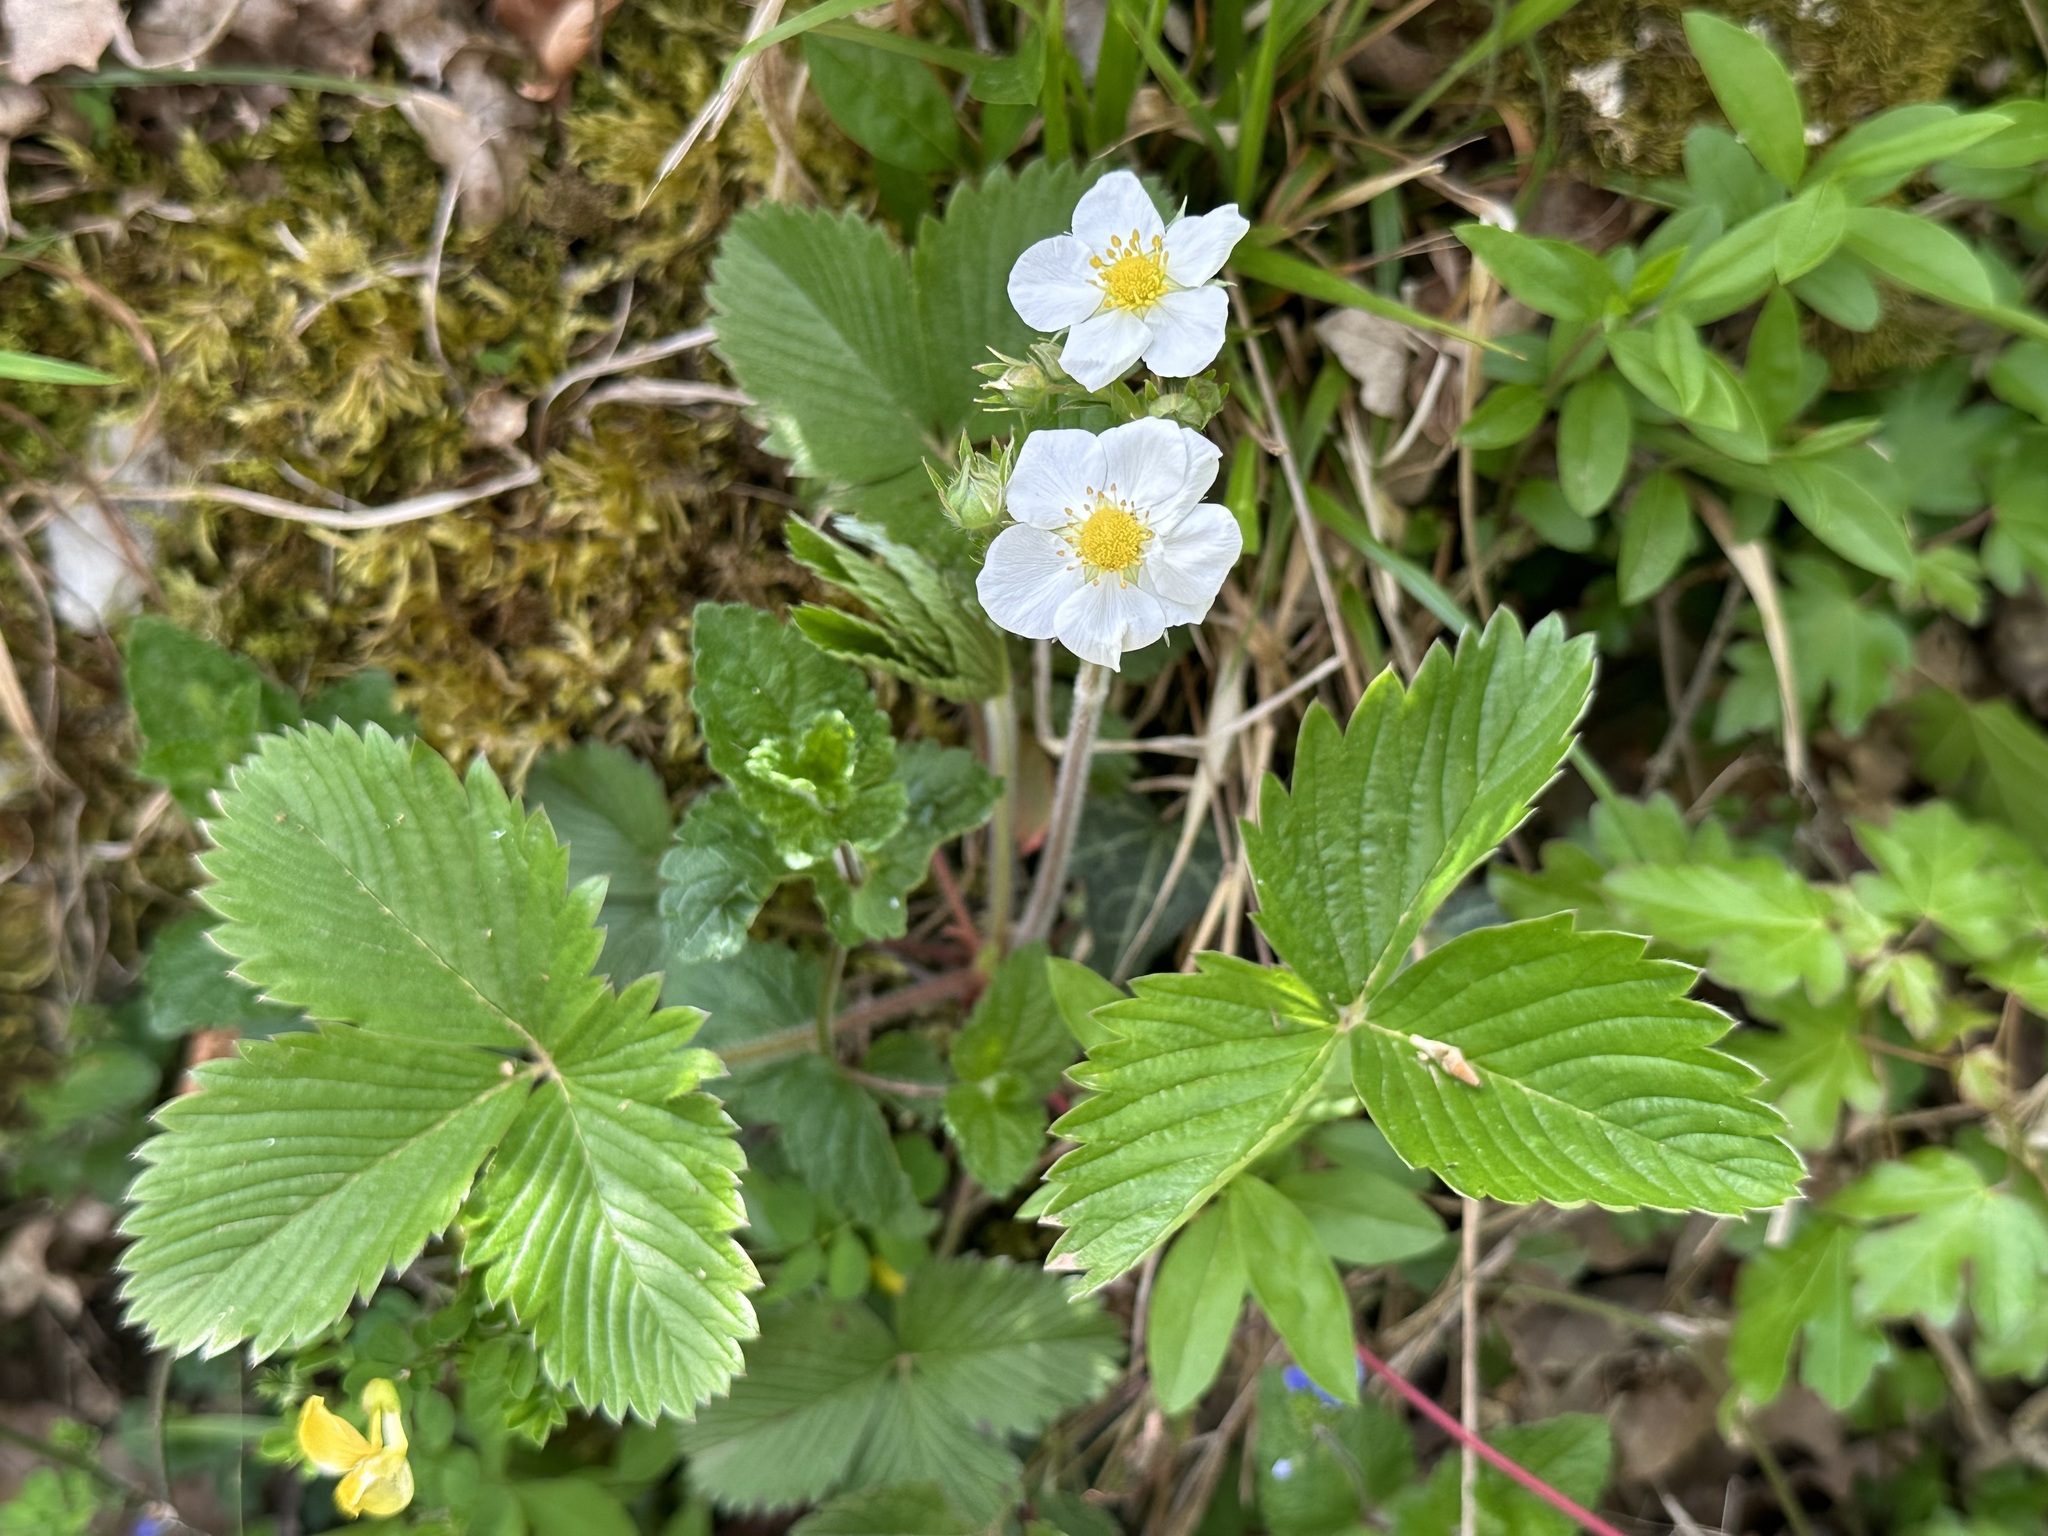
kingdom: Plantae
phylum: Tracheophyta
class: Magnoliopsida
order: Rosales
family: Rosaceae
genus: Fragaria
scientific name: Fragaria vesca
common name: Wild strawberry
